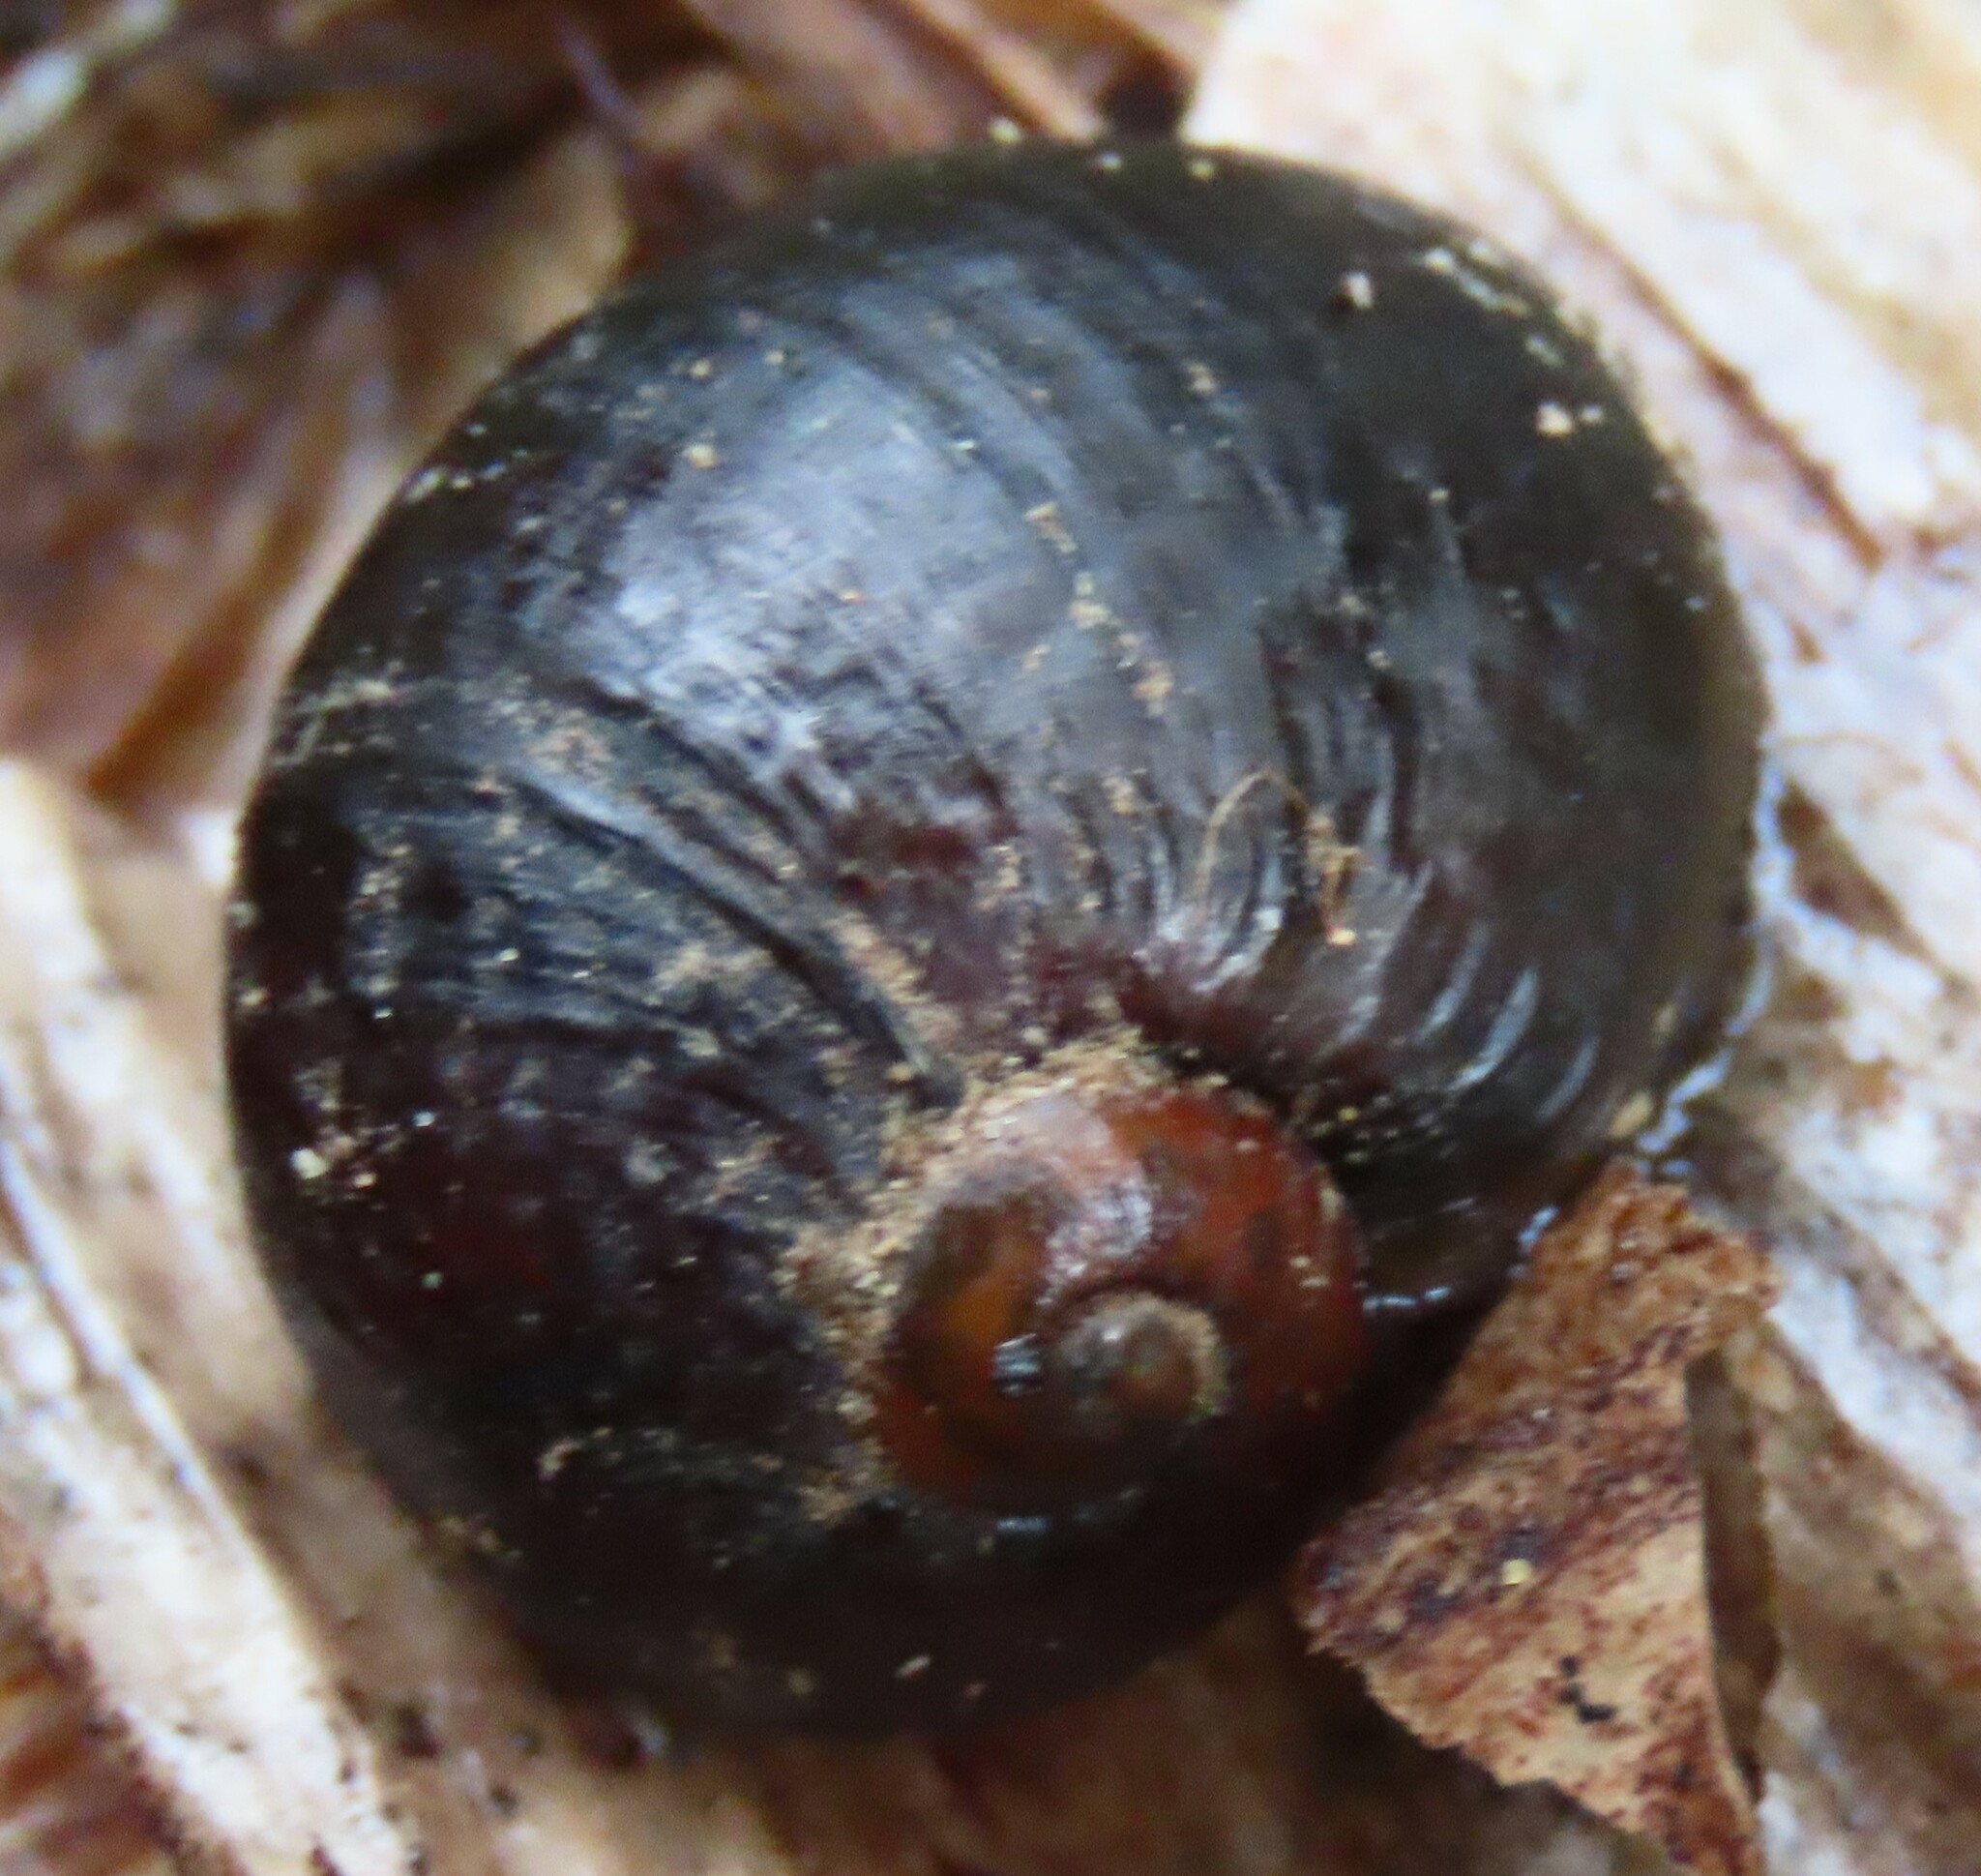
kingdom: Animalia
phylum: Mollusca
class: Gastropoda
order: Stylommatophora
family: Rhytididae
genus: Wainuia
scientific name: Wainuia urnula
